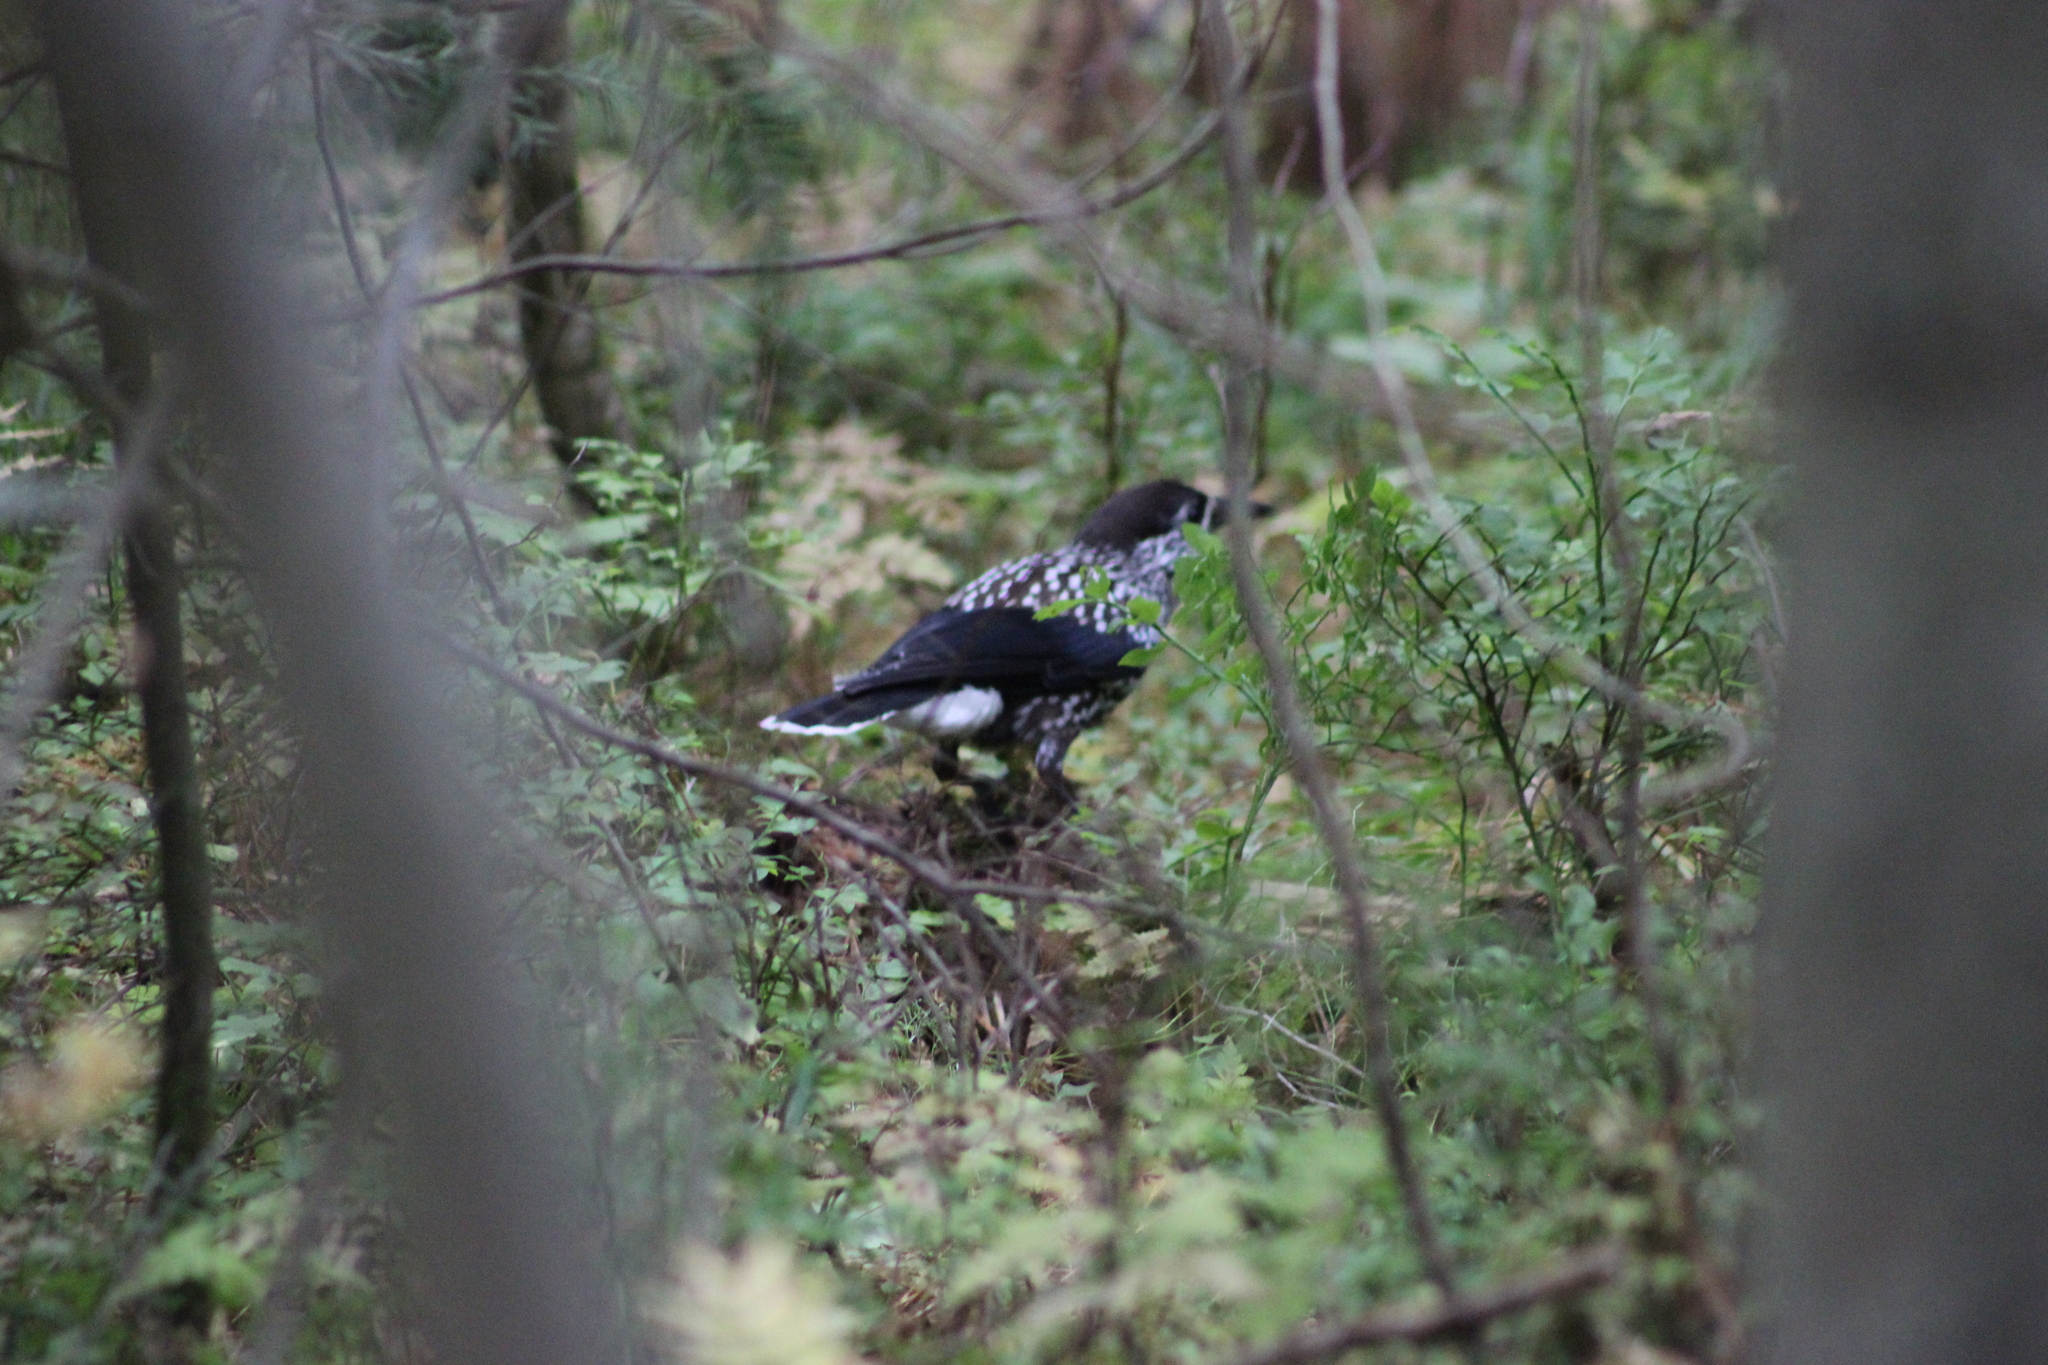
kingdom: Animalia
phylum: Chordata
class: Aves
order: Passeriformes
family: Corvidae
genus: Nucifraga
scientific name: Nucifraga caryocatactes
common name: Spotted nutcracker
